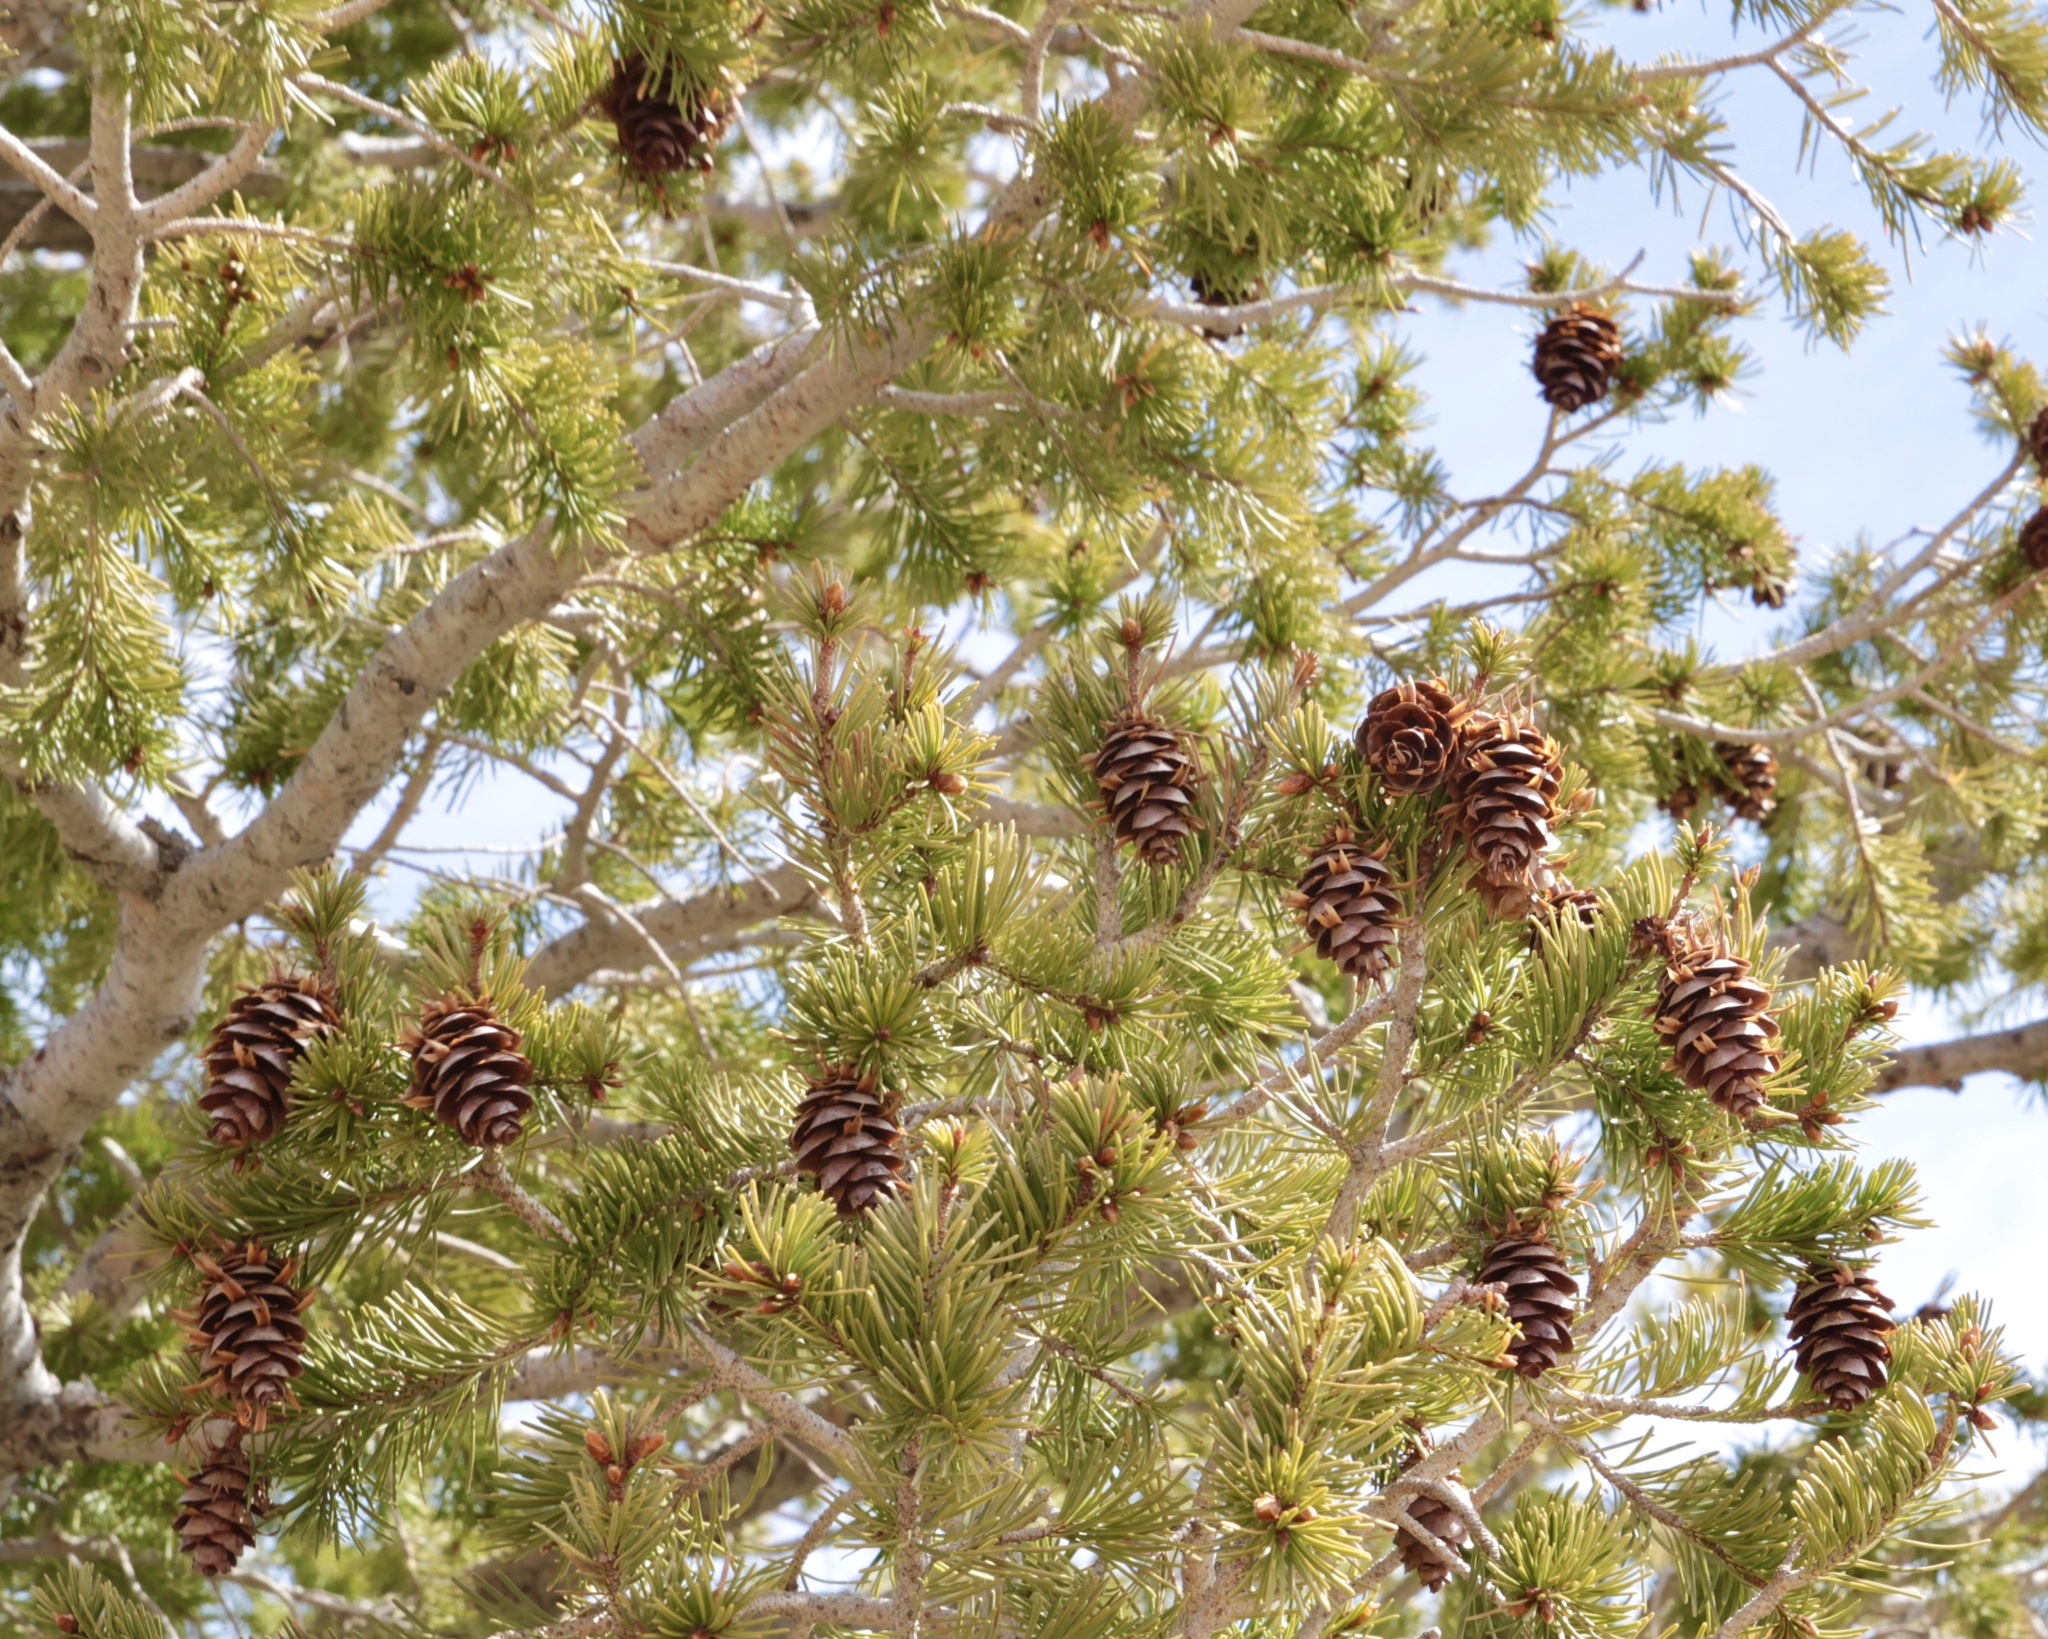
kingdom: Plantae
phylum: Tracheophyta
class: Pinopsida
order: Pinales
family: Pinaceae
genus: Pseudotsuga
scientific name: Pseudotsuga menziesii
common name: Douglas fir
